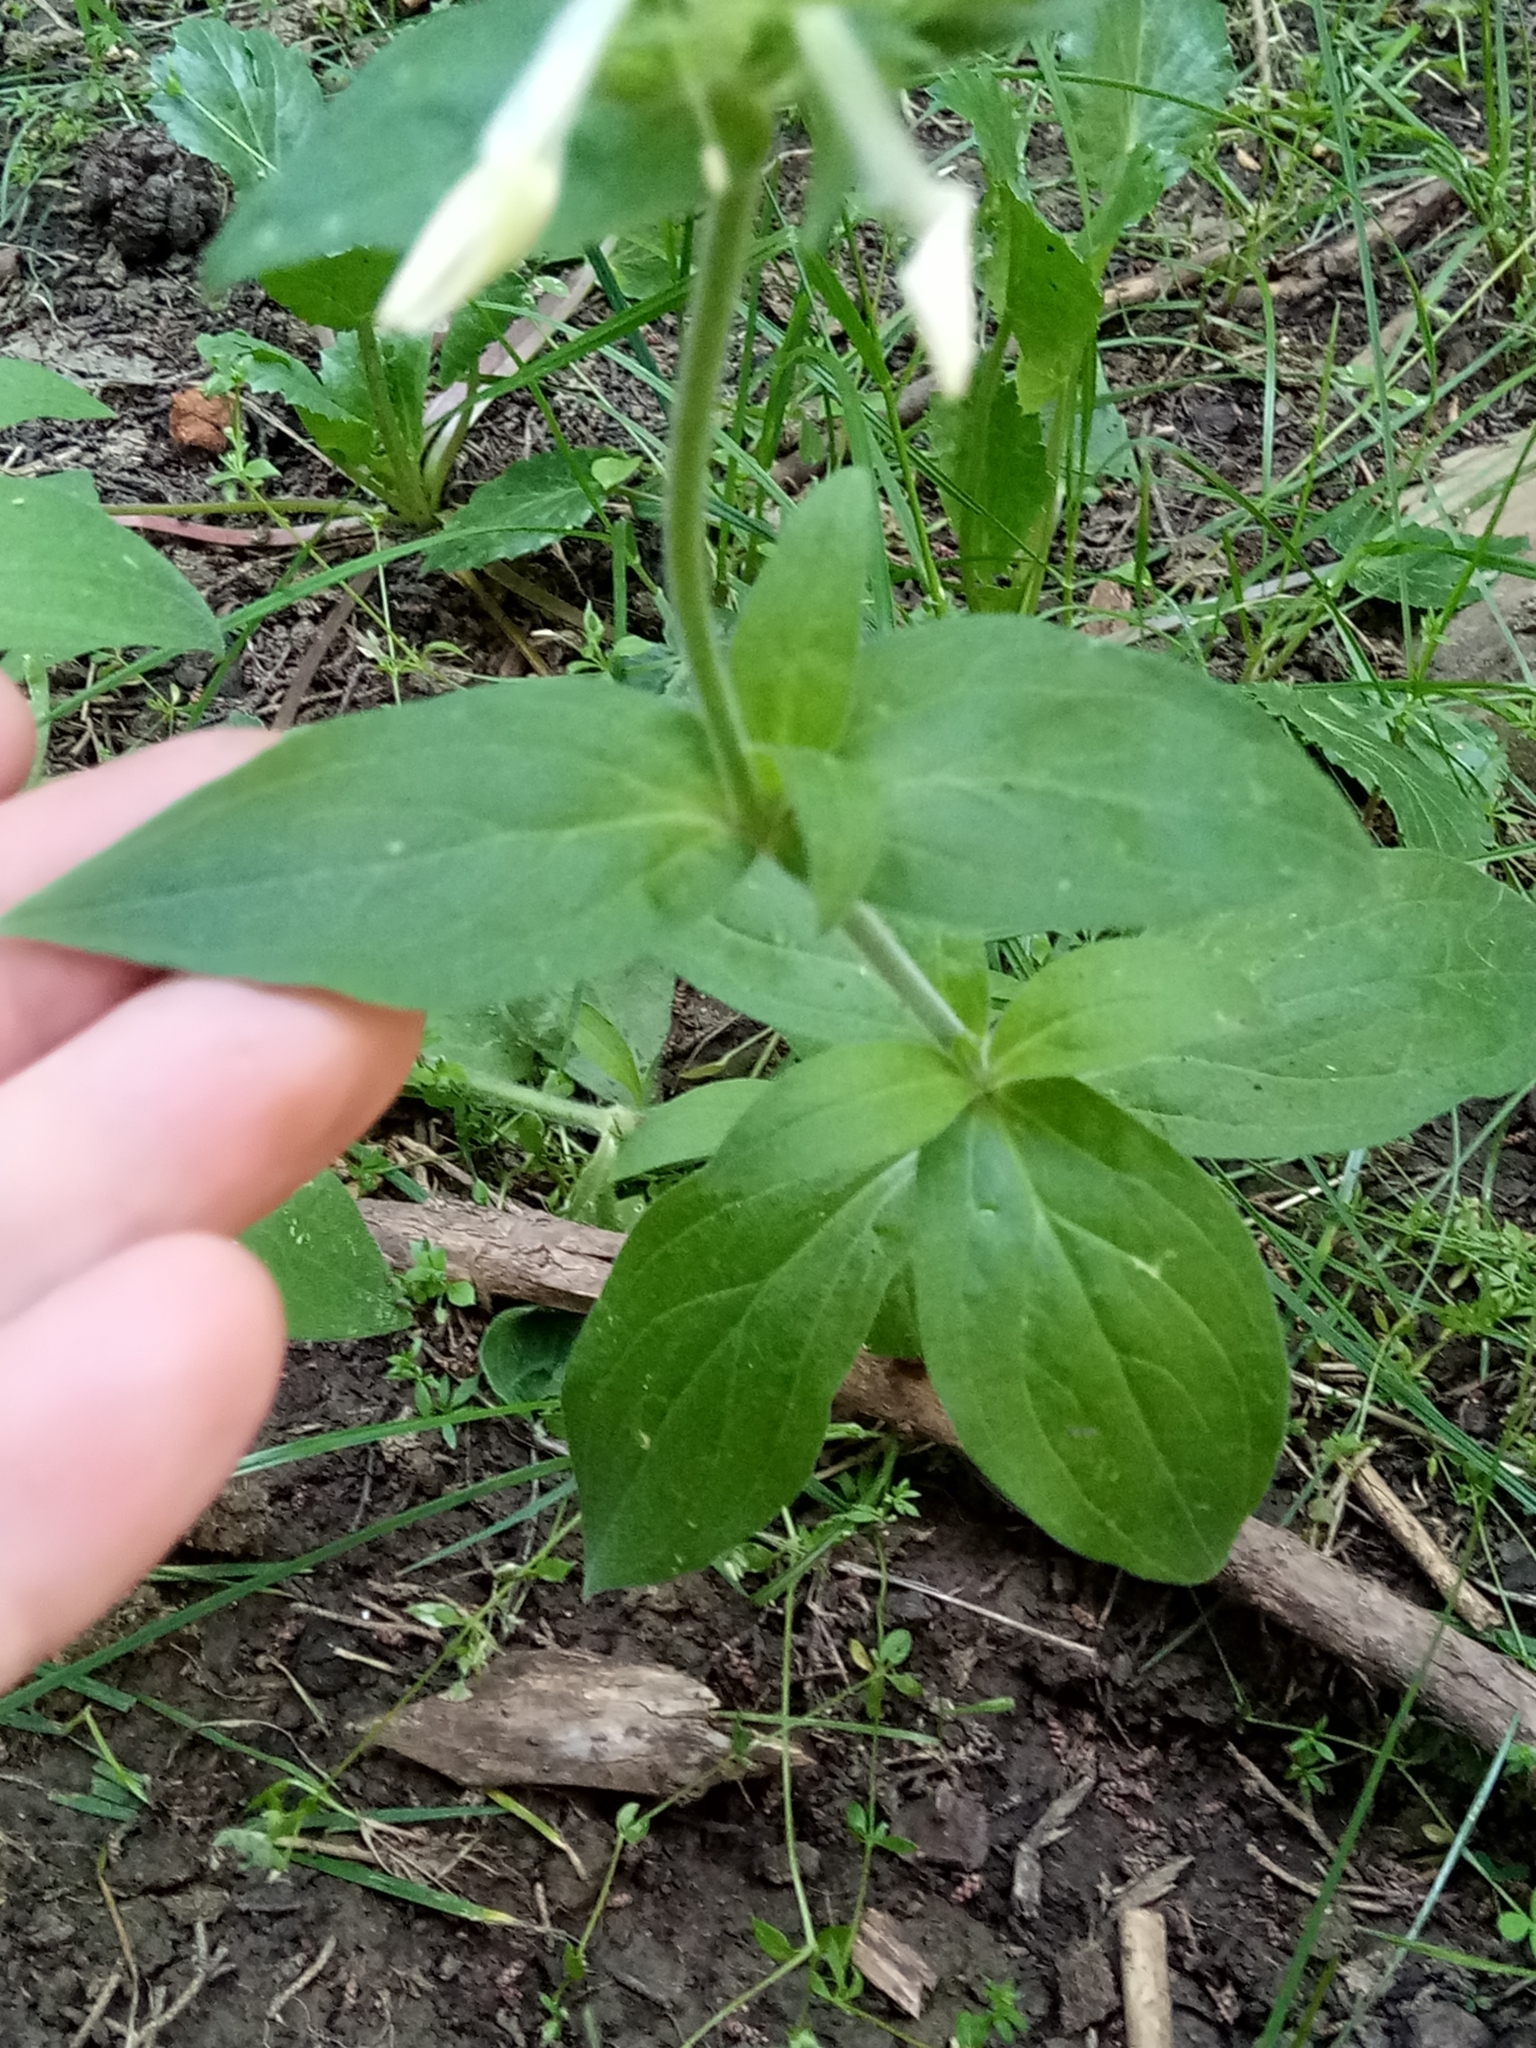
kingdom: Plantae
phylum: Tracheophyta
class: Magnoliopsida
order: Caryophyllales
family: Caryophyllaceae
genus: Silene
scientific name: Silene latifolia
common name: White campion
